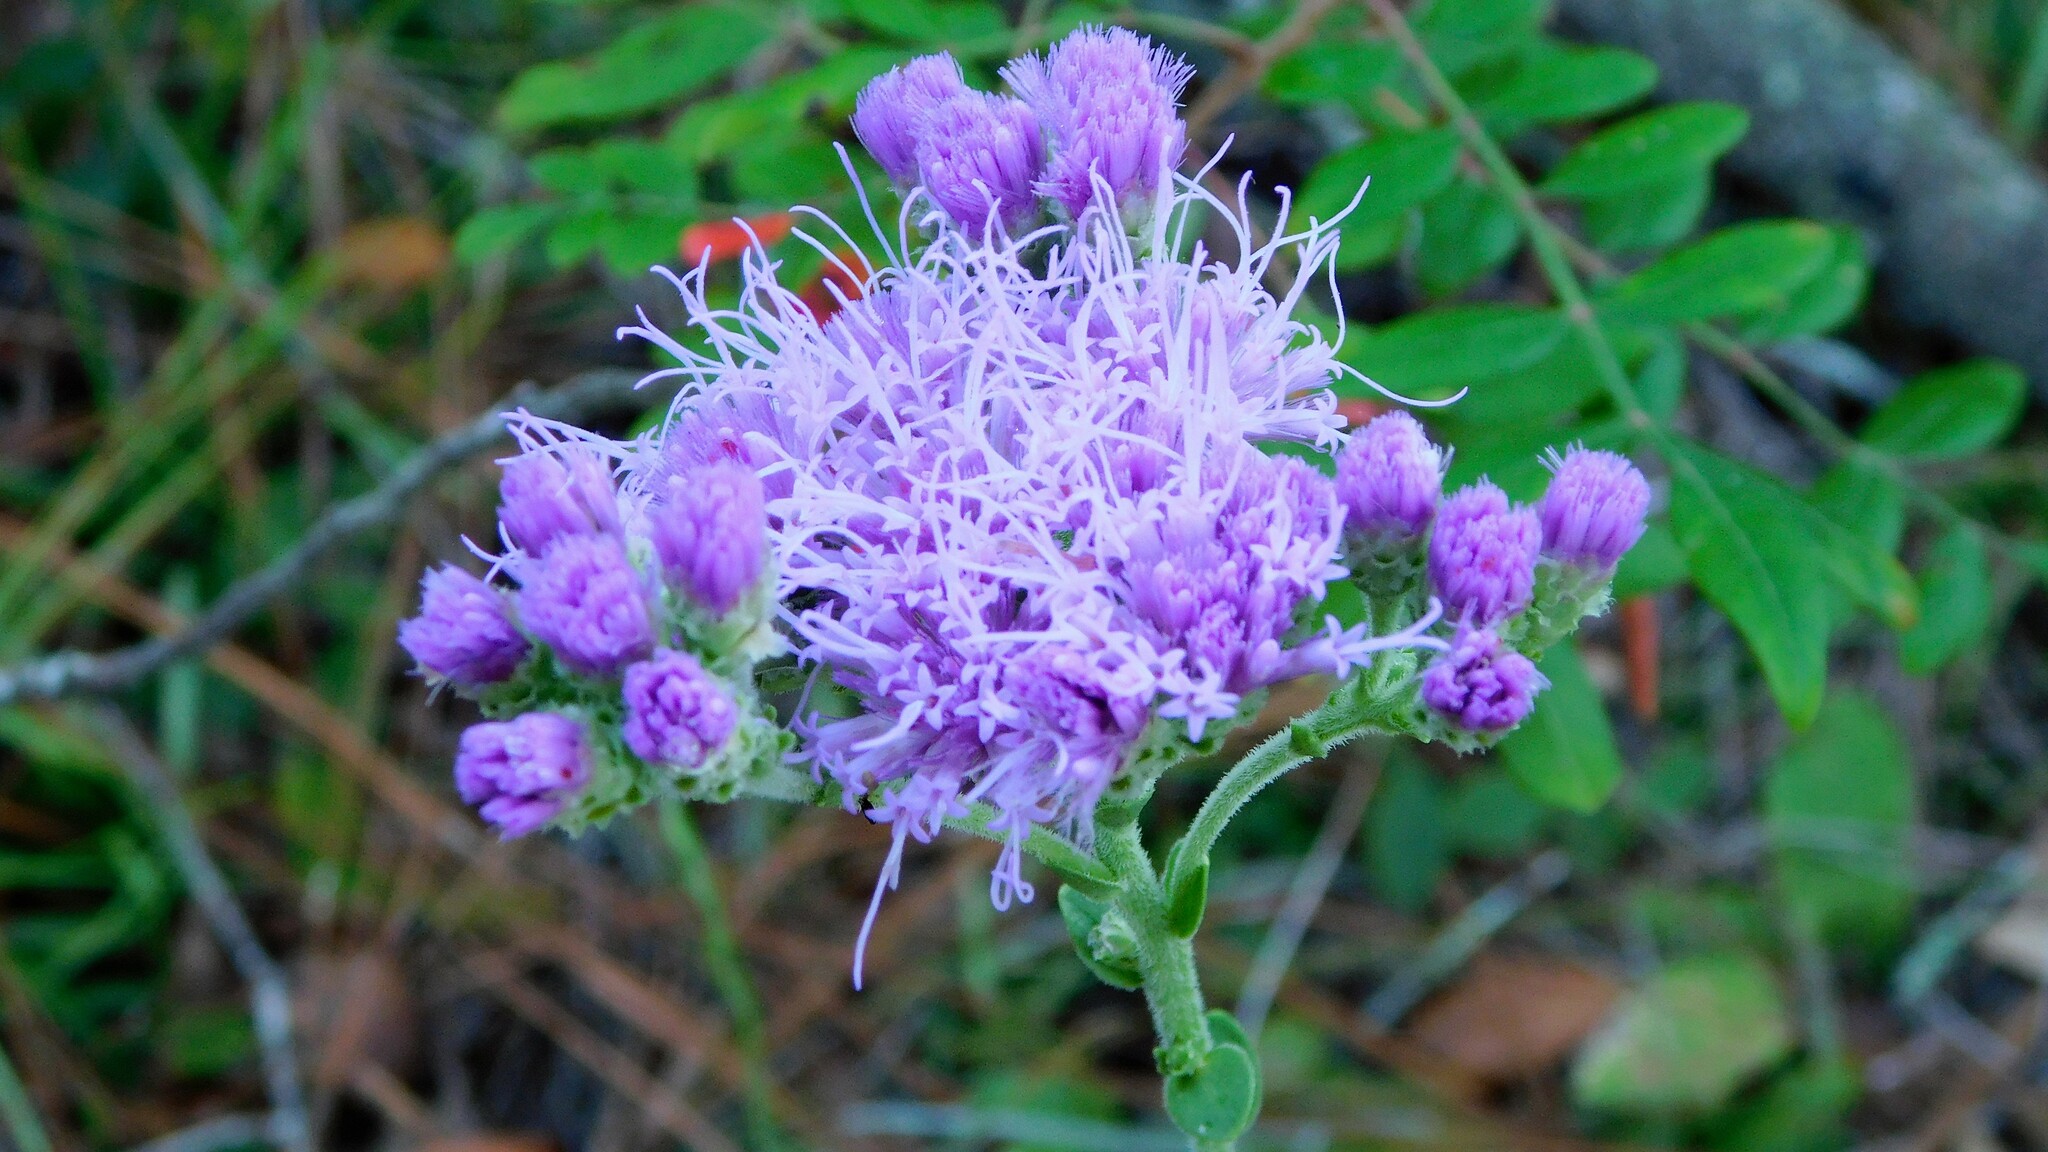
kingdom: Plantae
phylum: Tracheophyta
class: Magnoliopsida
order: Asterales
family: Asteraceae
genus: Carphephorus
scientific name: Carphephorus corymbosus
